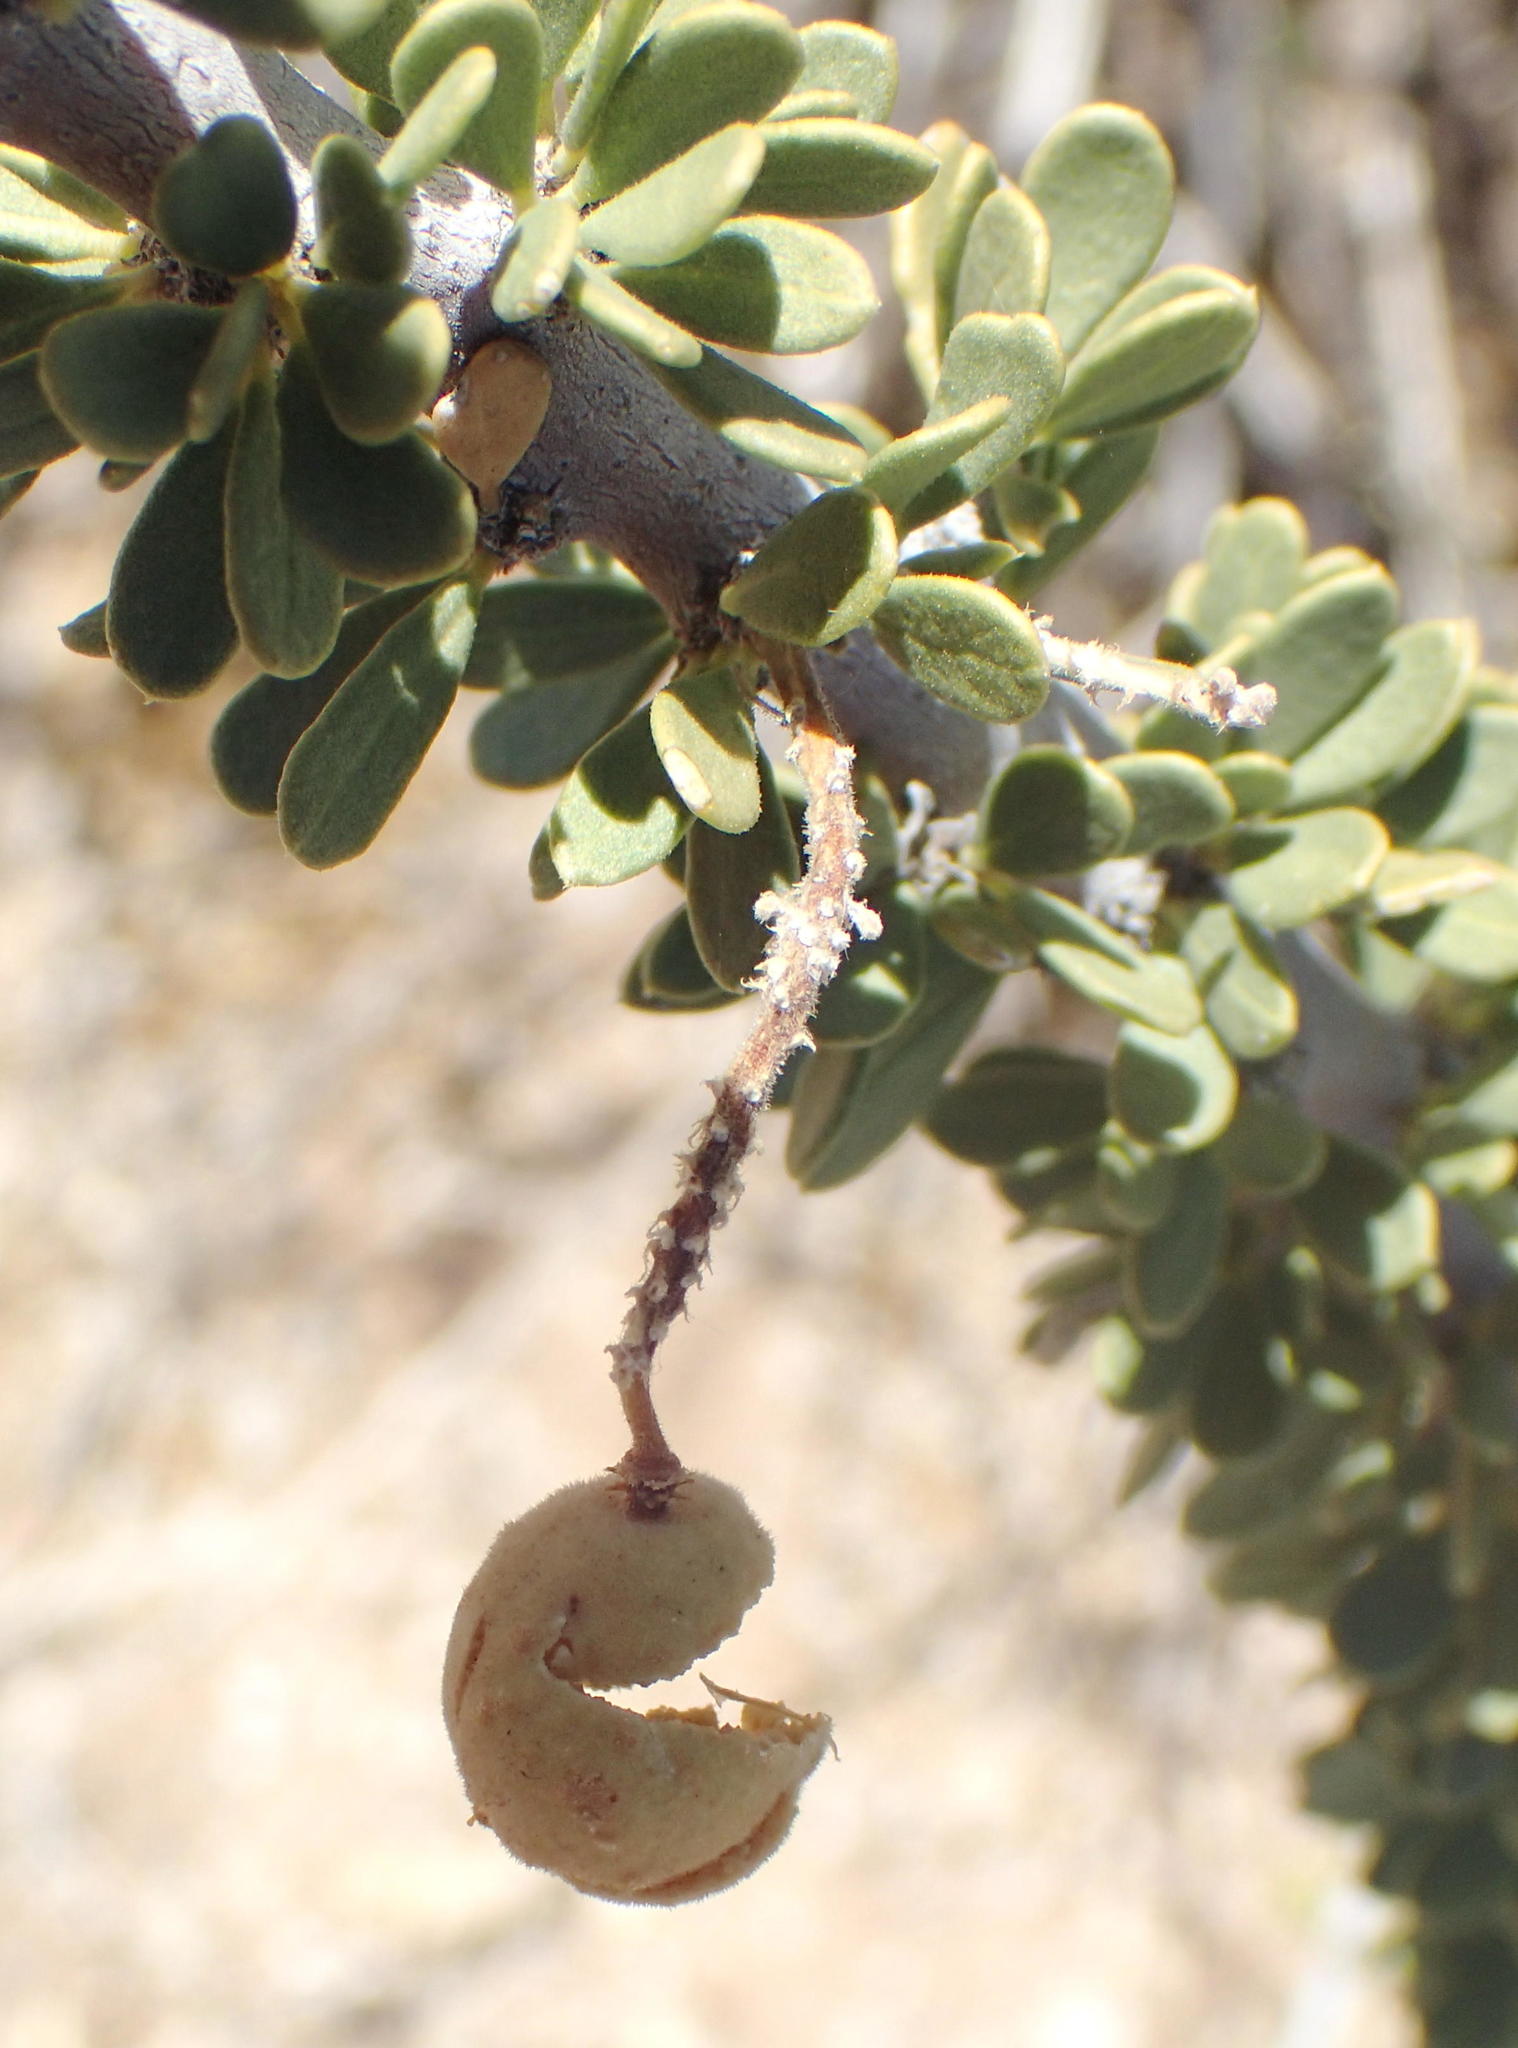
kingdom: Plantae
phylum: Tracheophyta
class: Magnoliopsida
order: Brassicales
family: Capparaceae
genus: Boscia
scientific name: Boscia foetida
